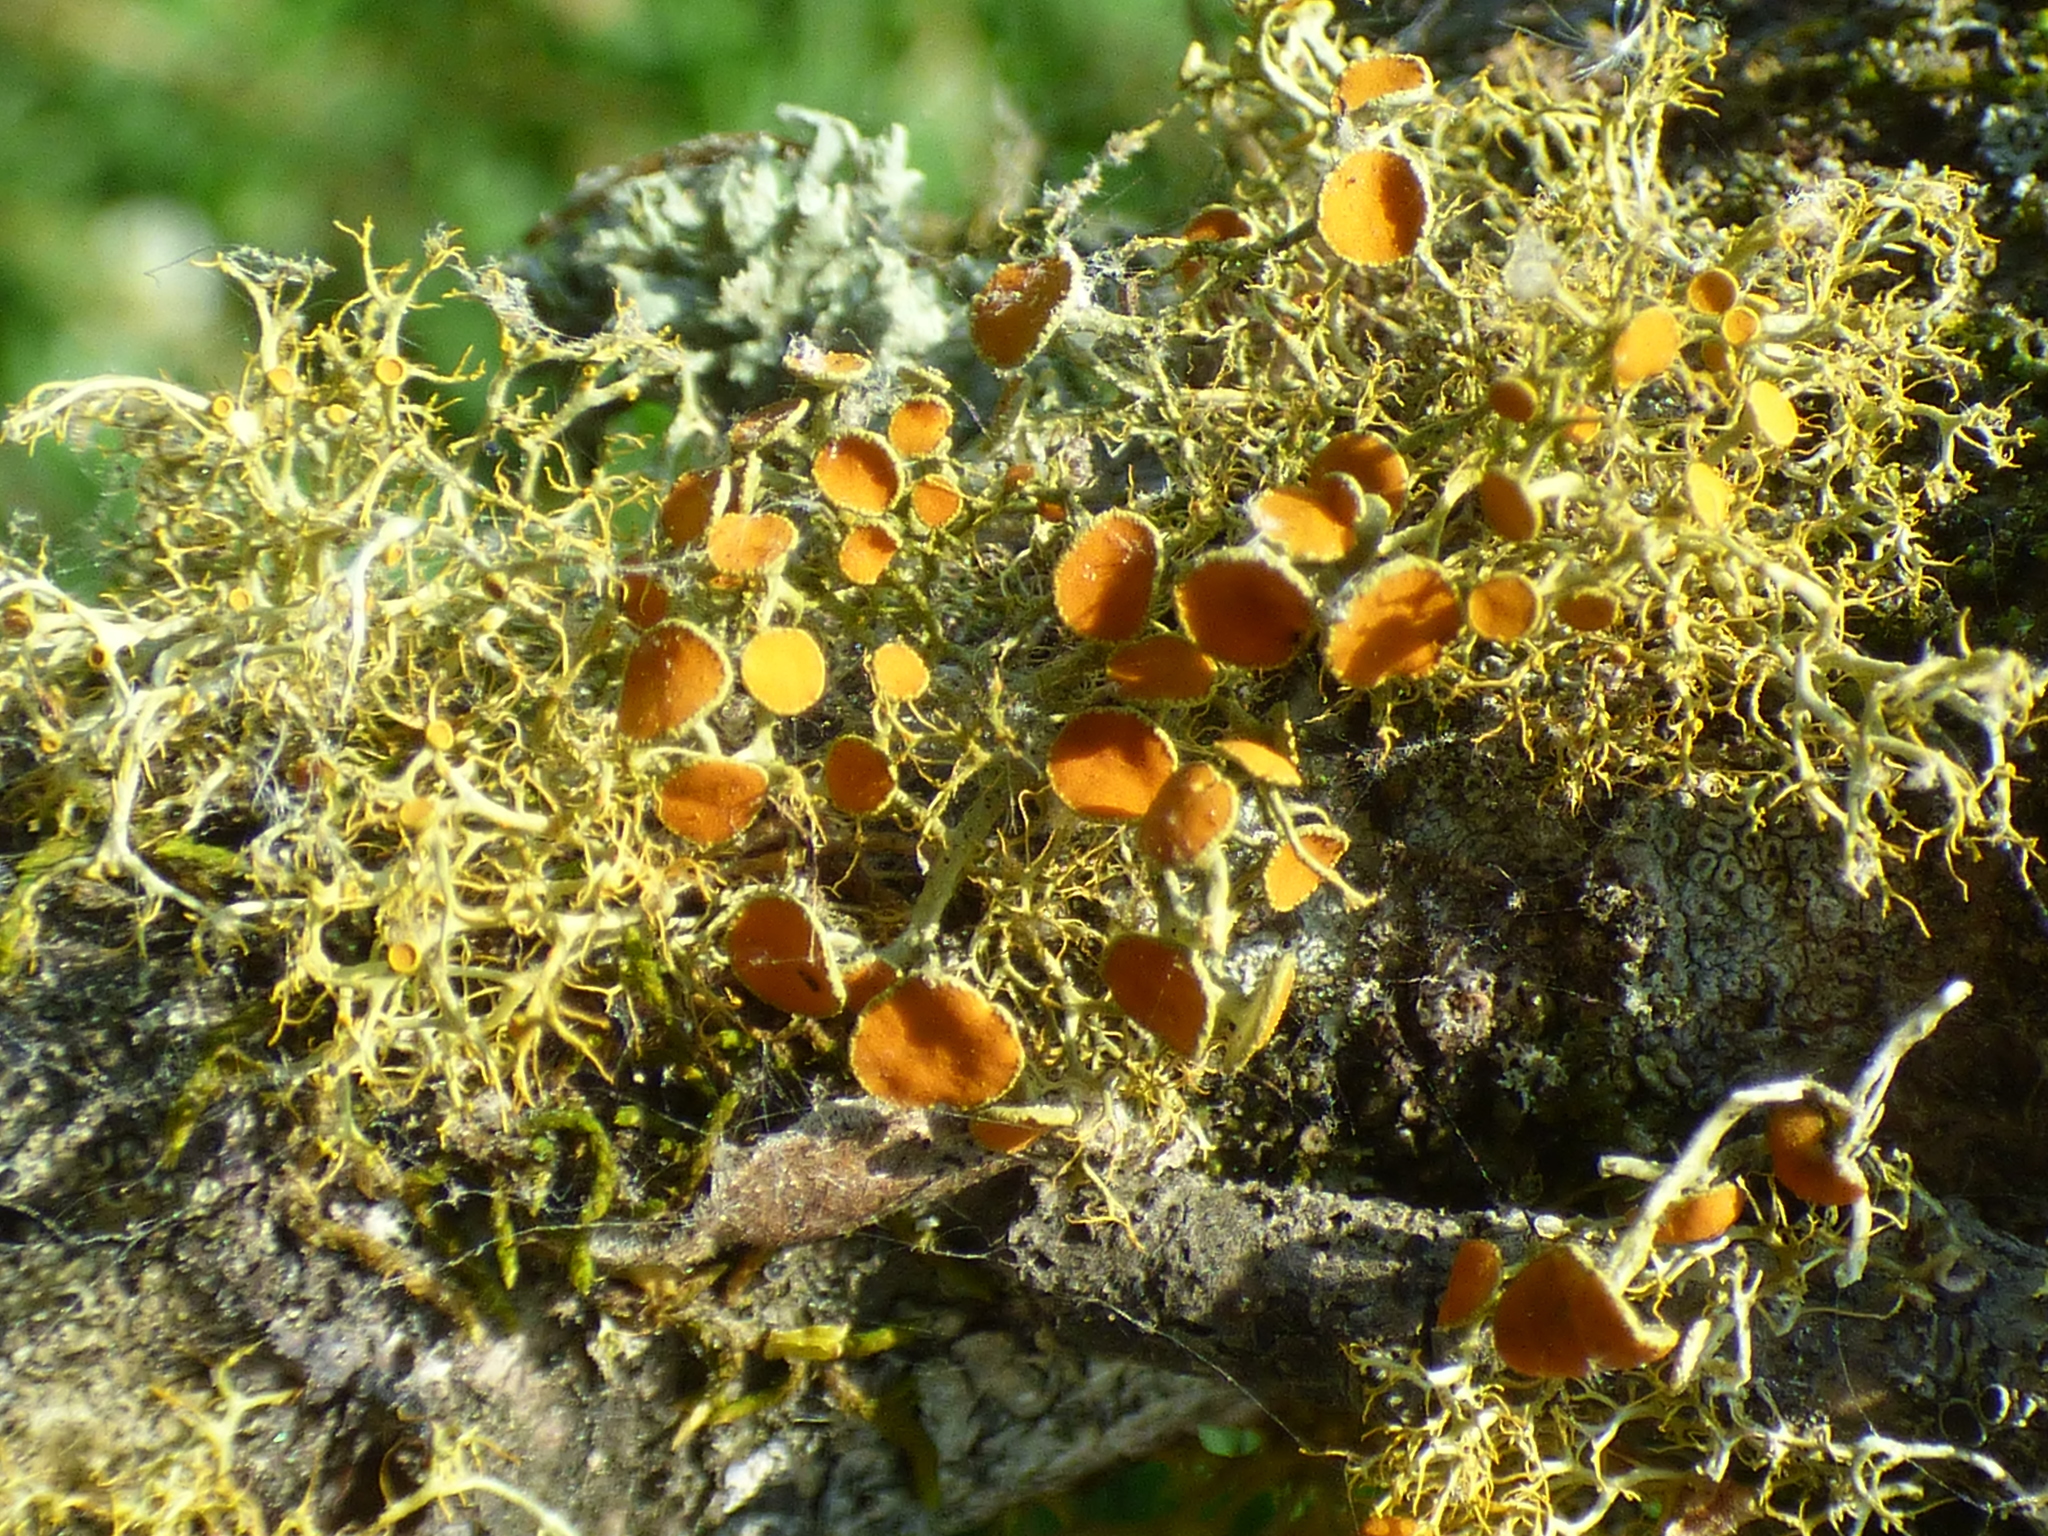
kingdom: Fungi
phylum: Ascomycota
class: Lecanoromycetes
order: Teloschistales
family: Teloschistaceae
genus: Teloschistes
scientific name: Teloschistes exilis
